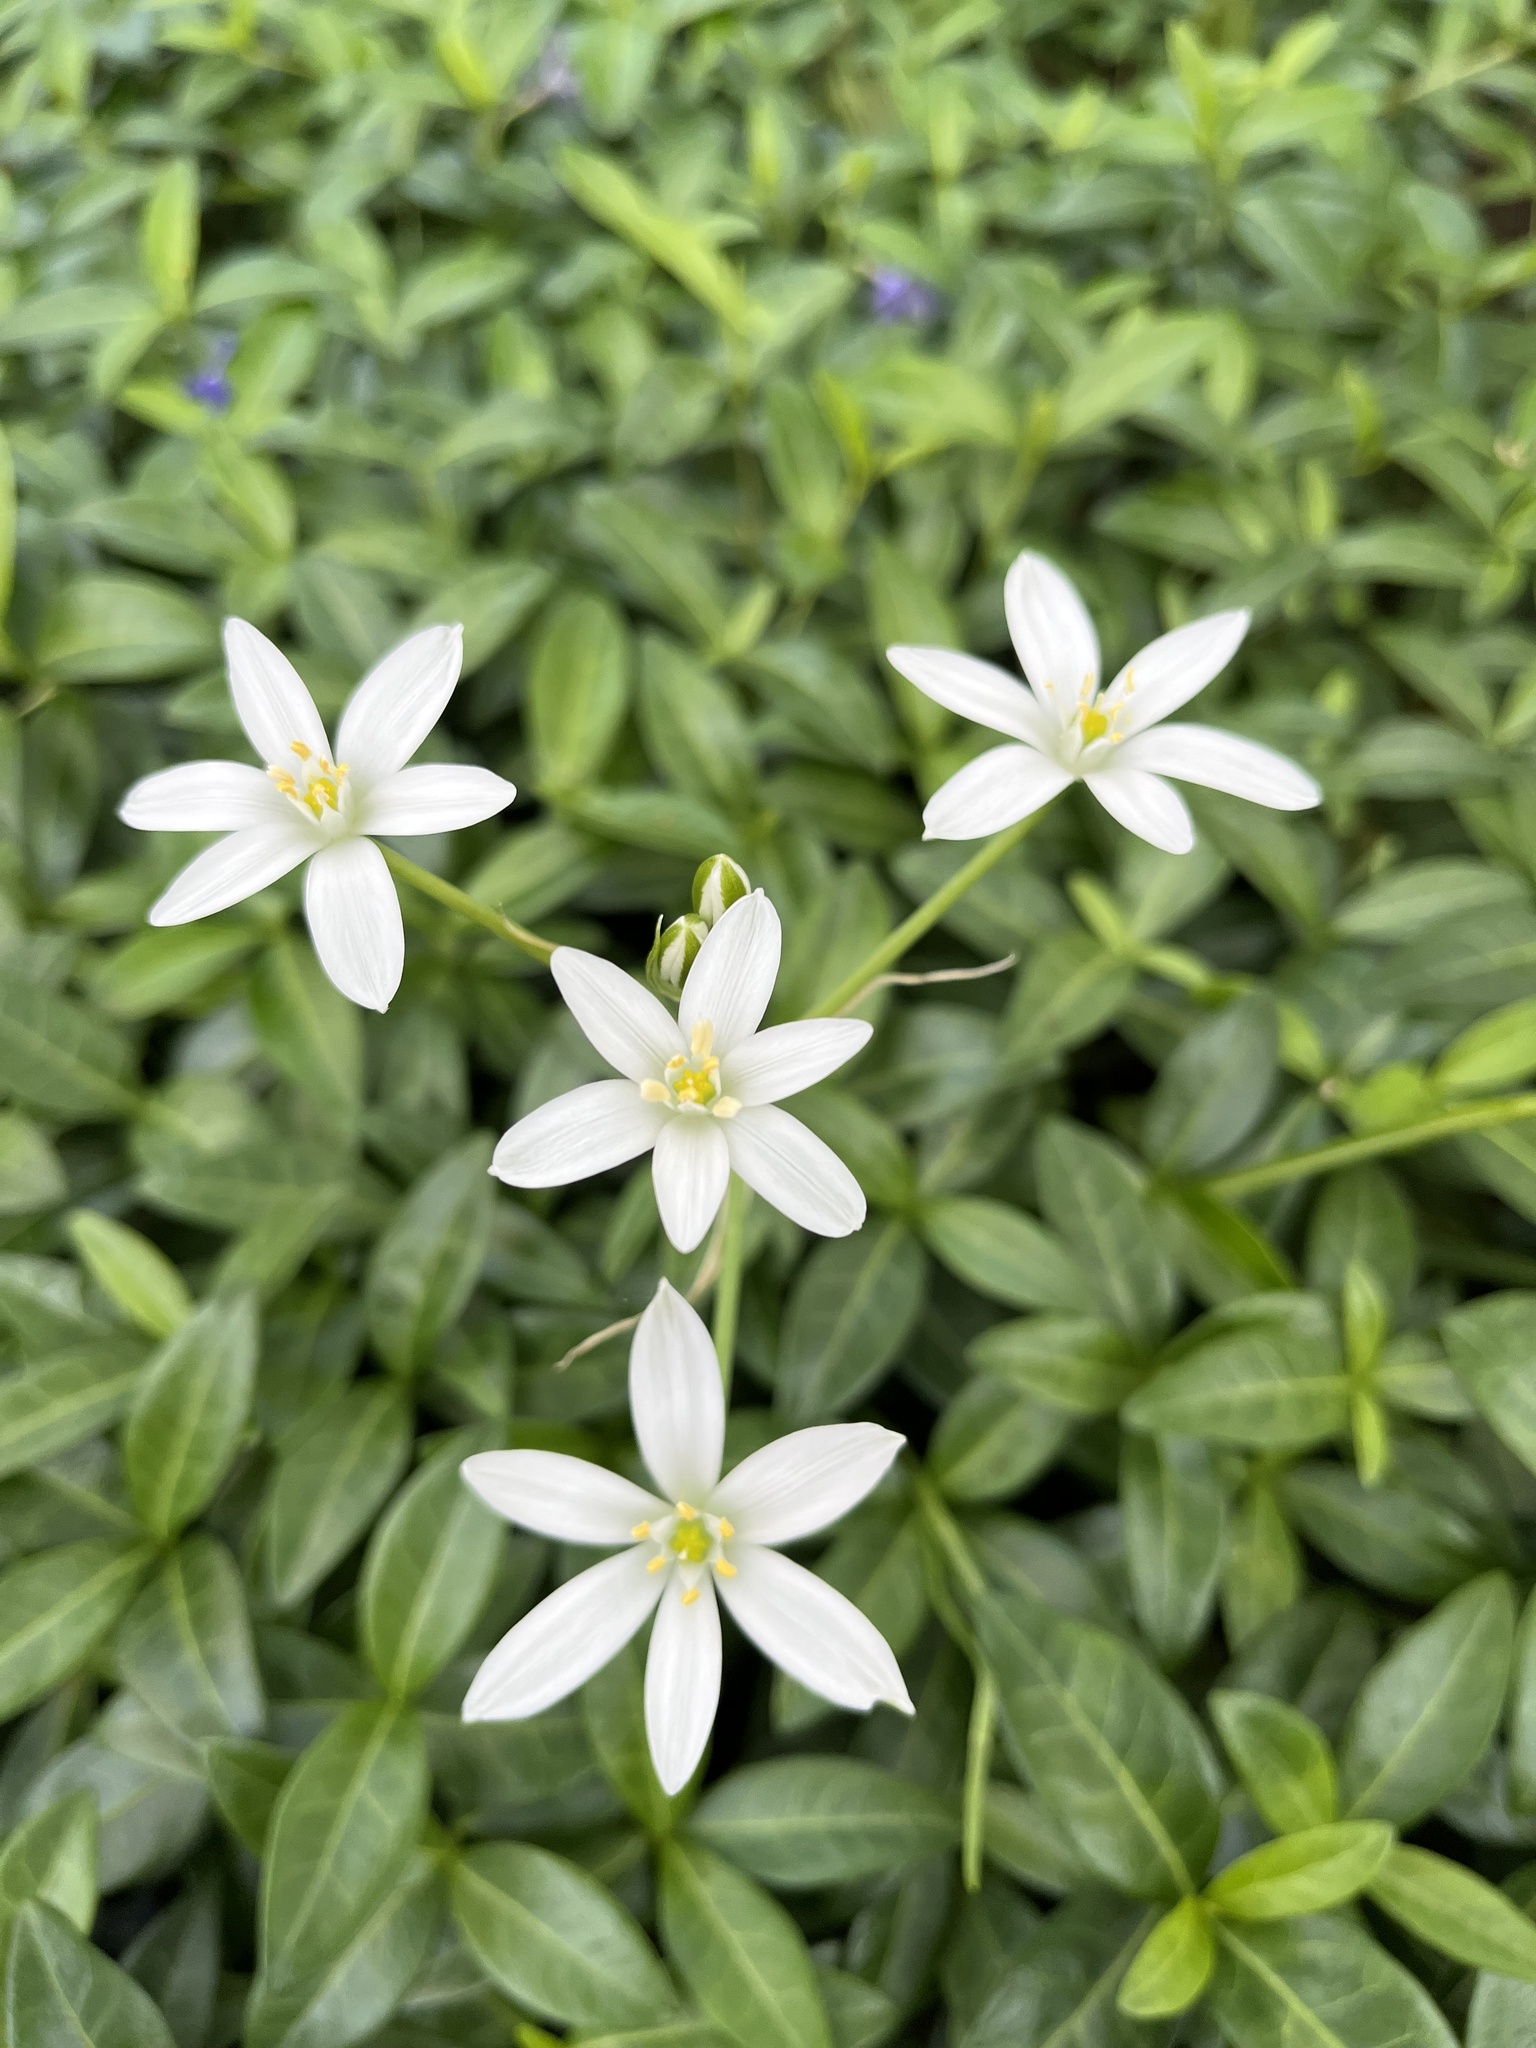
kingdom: Plantae
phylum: Tracheophyta
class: Liliopsida
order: Asparagales
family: Asparagaceae
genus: Ornithogalum
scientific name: Ornithogalum umbellatum
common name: Garden star-of-bethlehem
